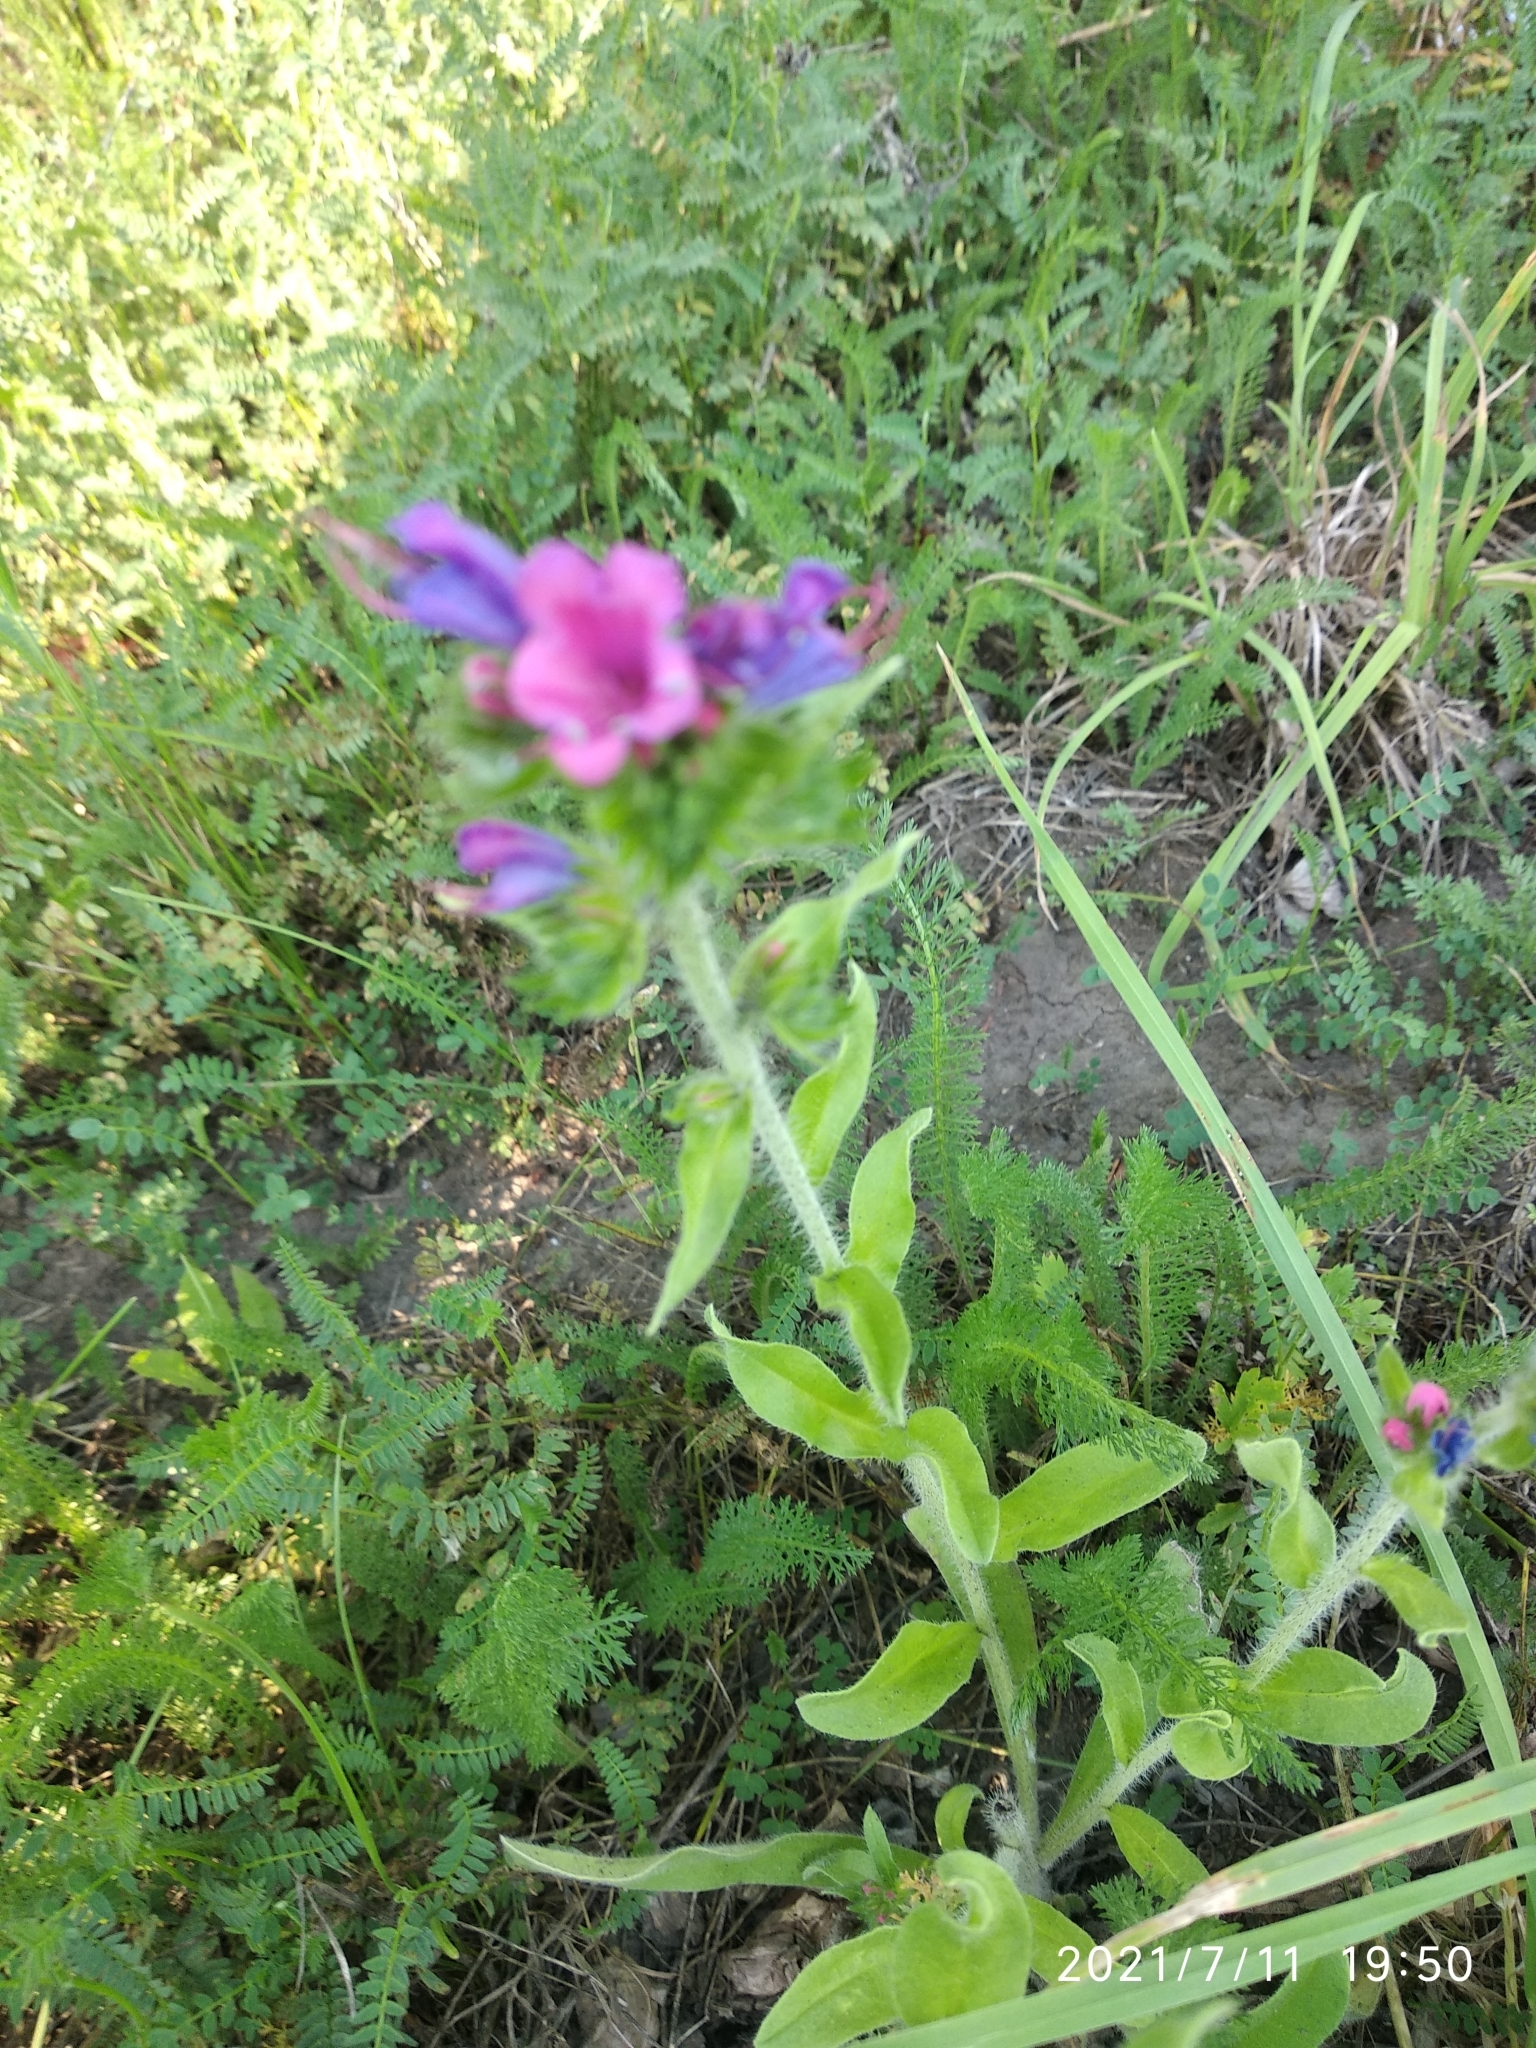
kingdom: Plantae
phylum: Tracheophyta
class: Magnoliopsida
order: Boraginales
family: Boraginaceae
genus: Echium
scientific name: Echium vulgare
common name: Common viper's bugloss
